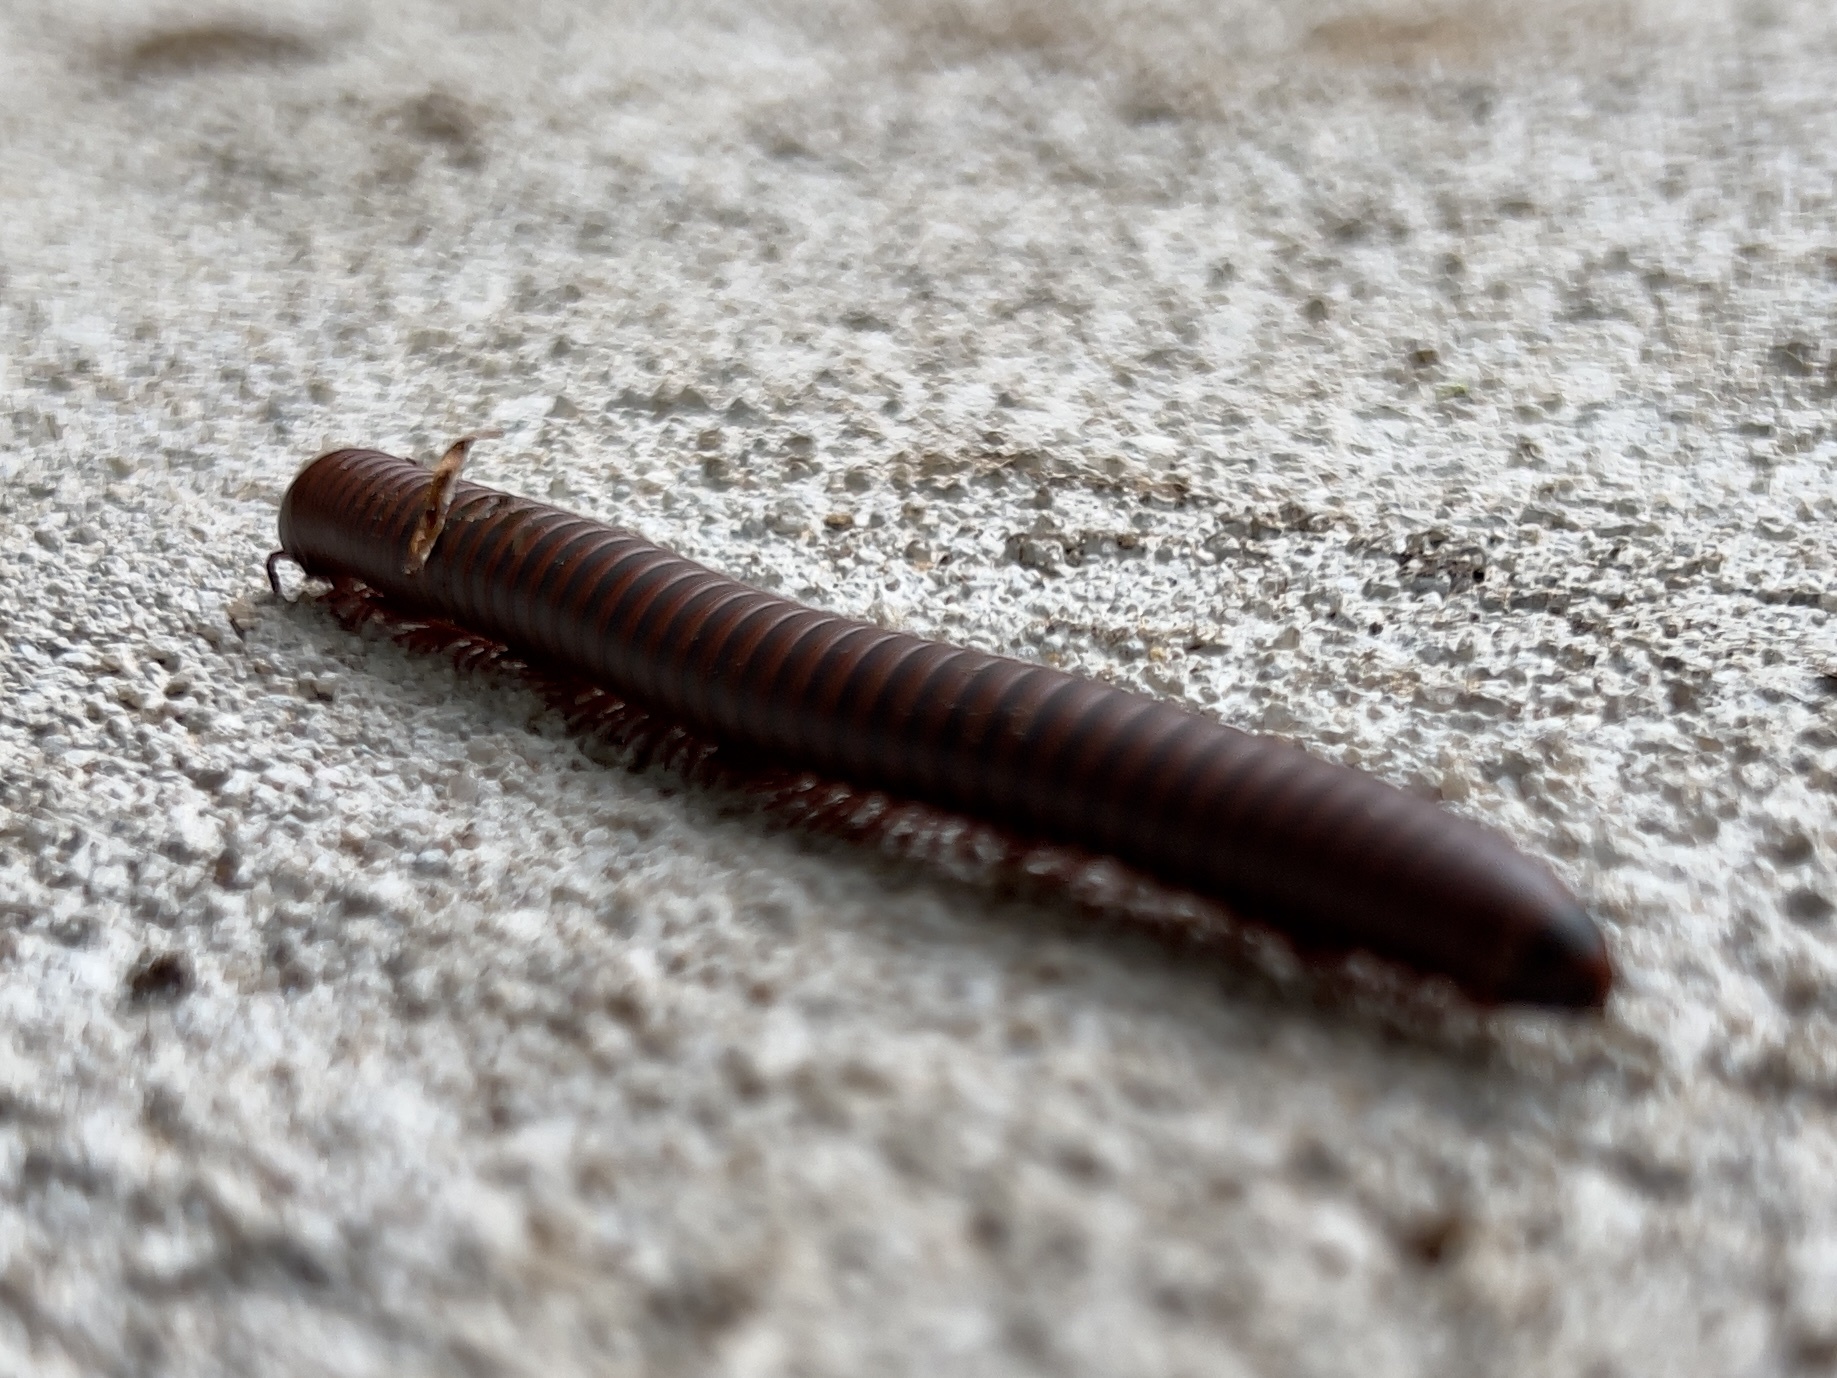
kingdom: Animalia
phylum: Arthropoda
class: Diplopoda
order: Spirobolida
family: Spirobolidae
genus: Narceus
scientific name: Narceus americanus
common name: American giant millipede
